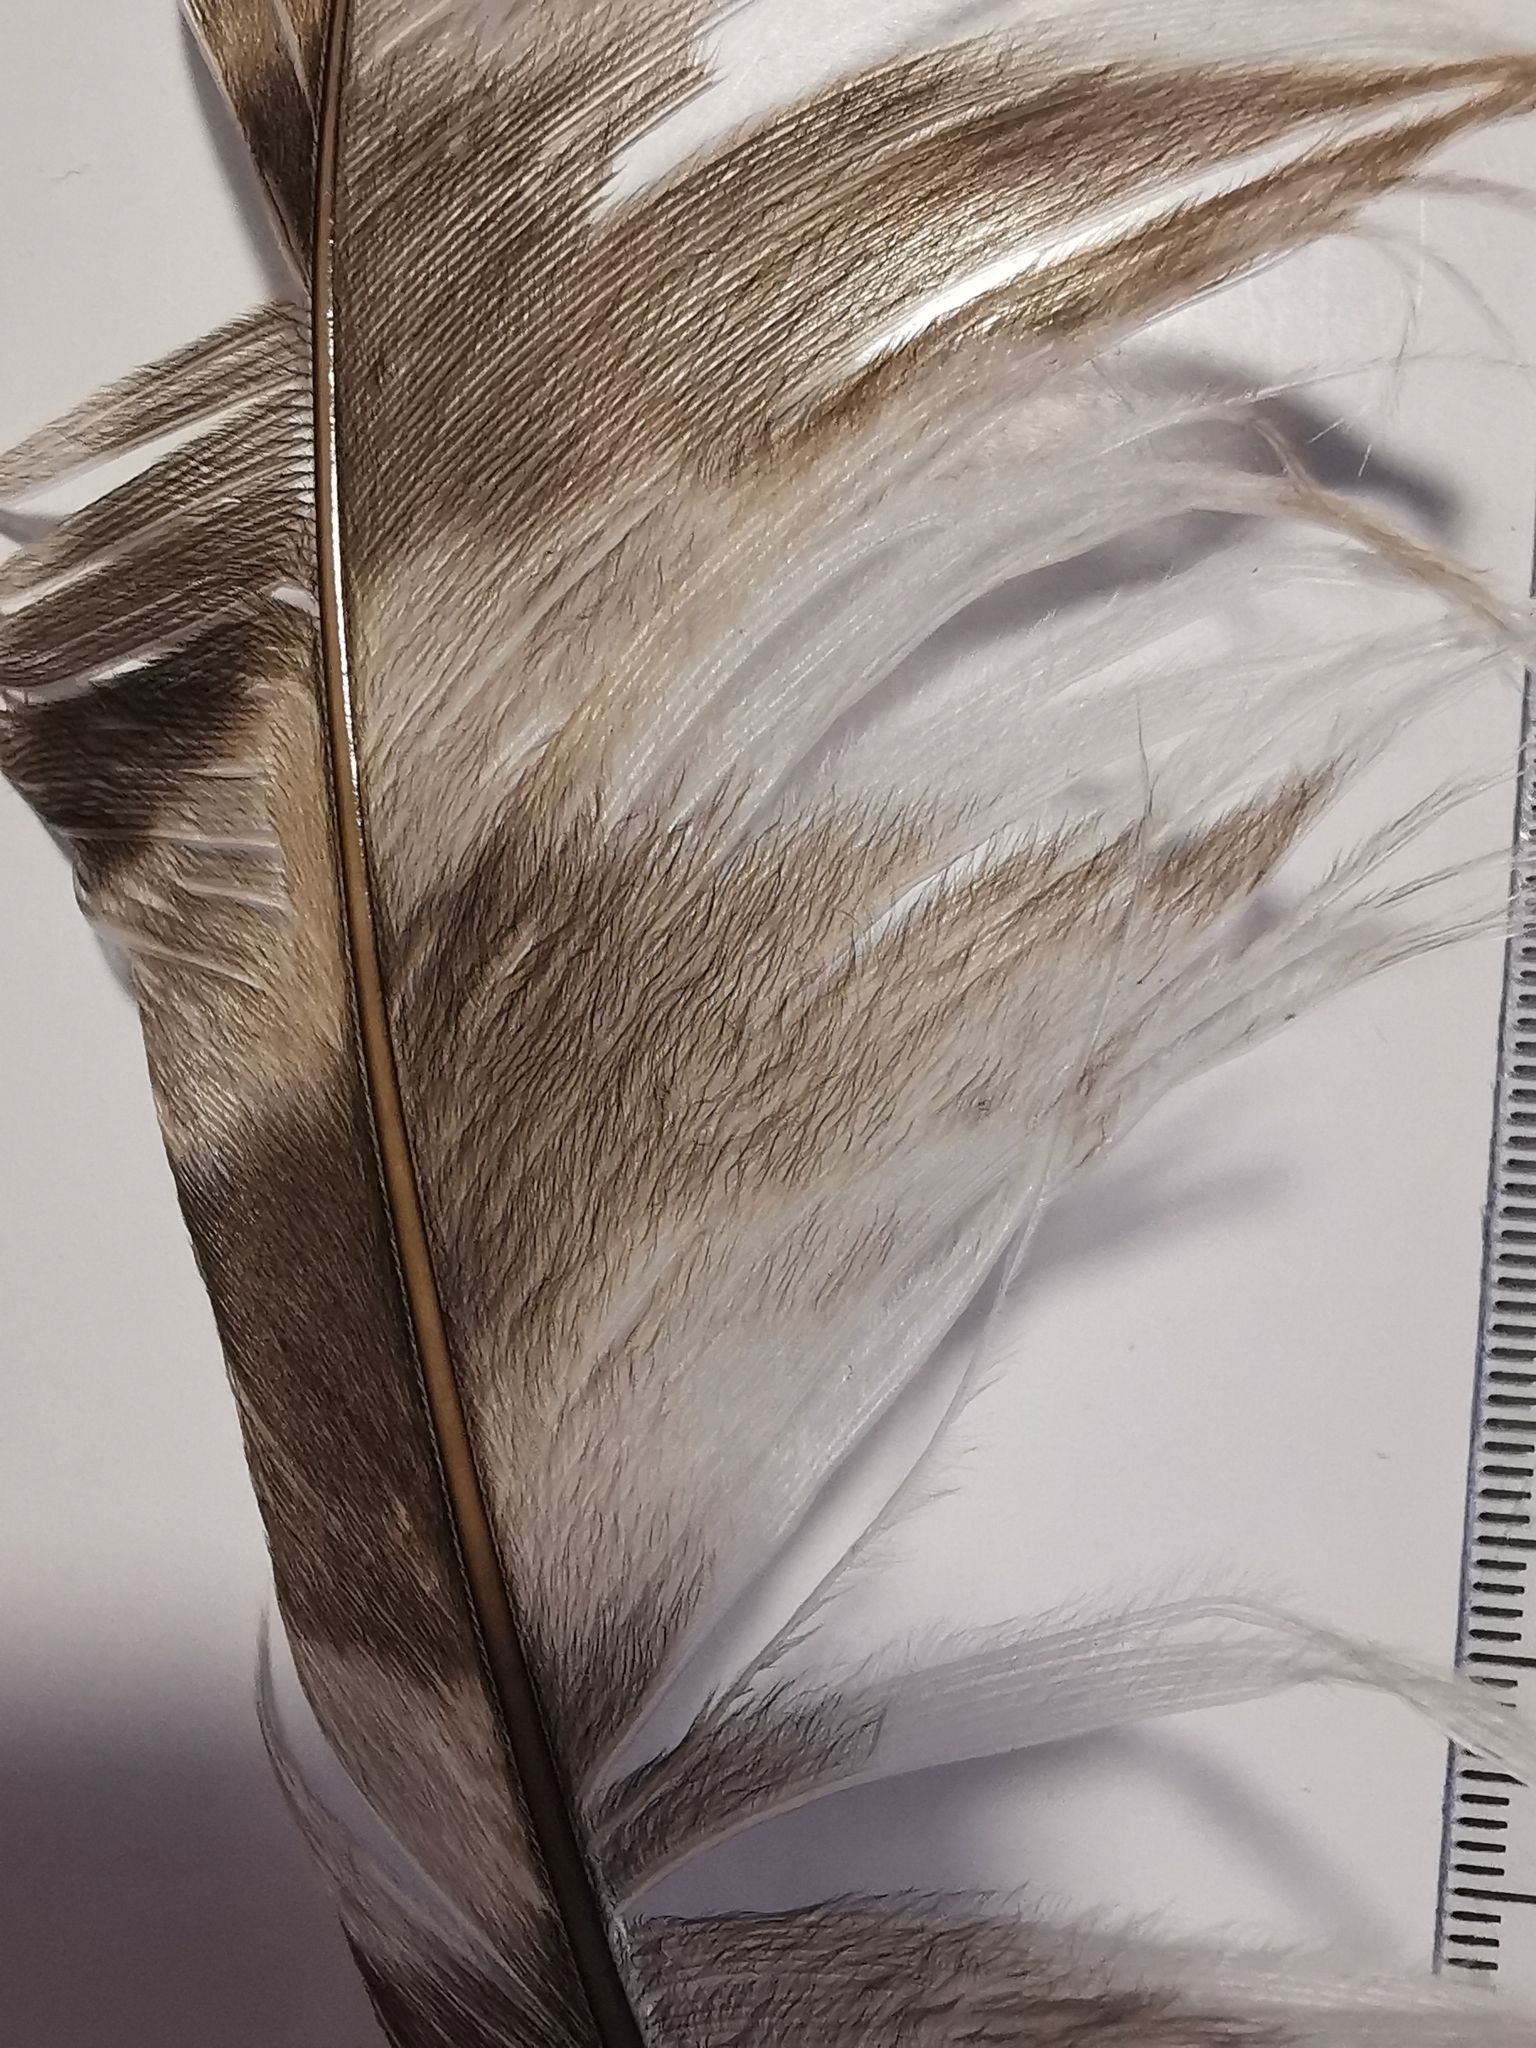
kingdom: Animalia
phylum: Chordata
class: Aves
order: Strigiformes
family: Strigidae
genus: Strix
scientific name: Strix uralensis
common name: Ural owl
